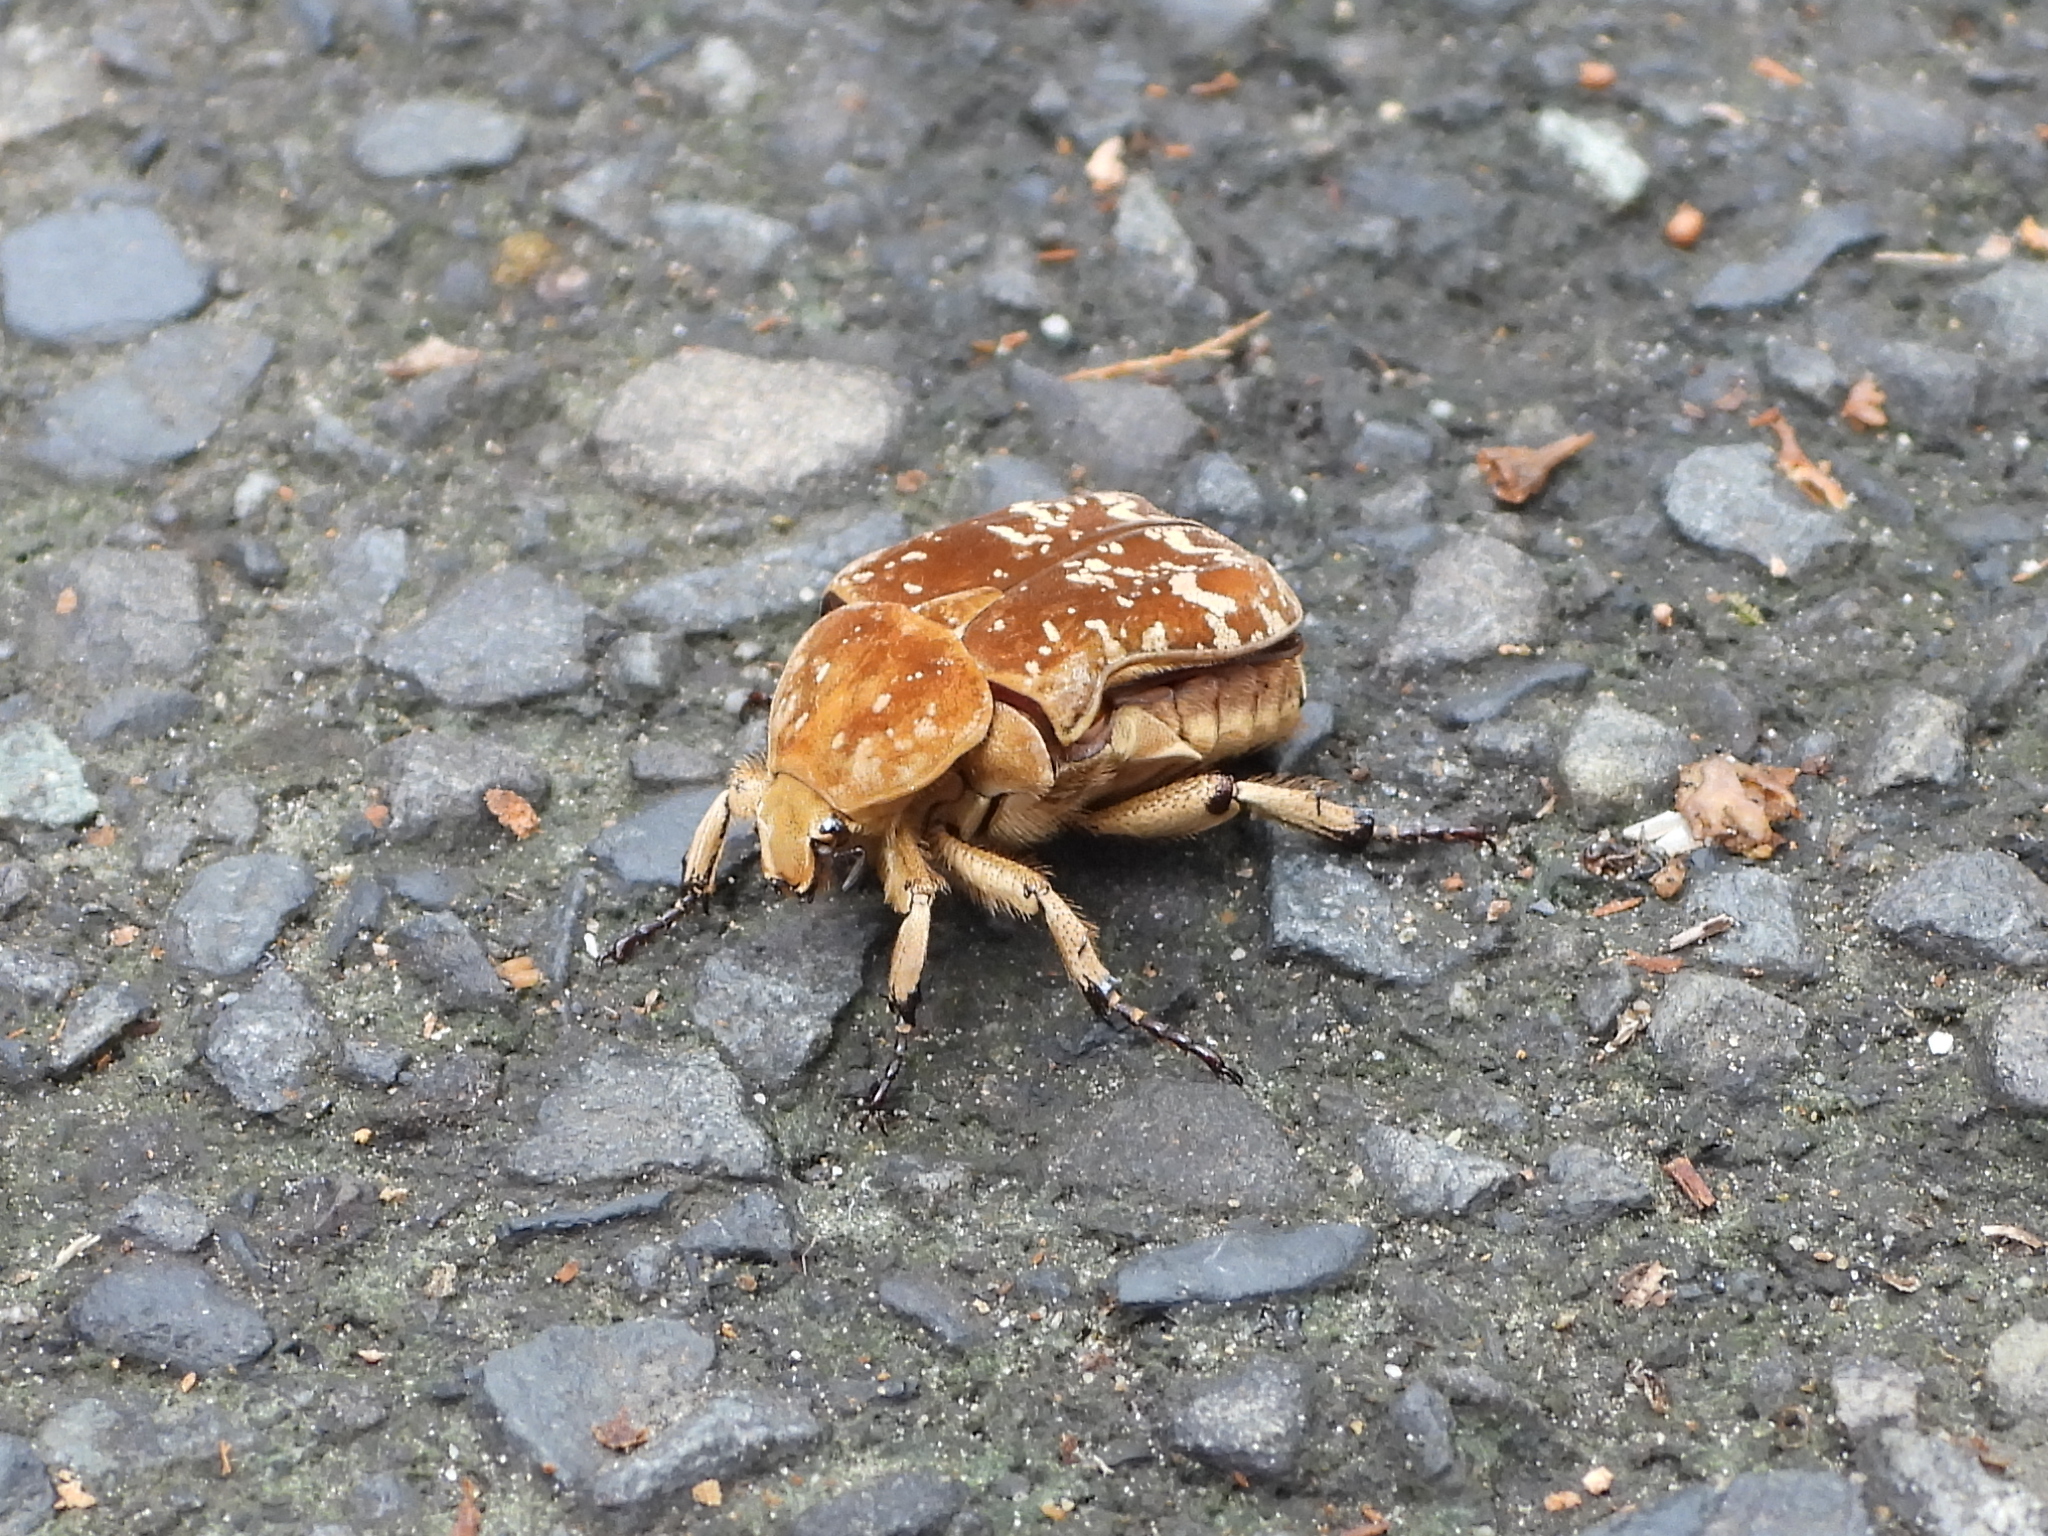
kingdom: Animalia
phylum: Arthropoda
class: Insecta
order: Coleoptera
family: Scarabaeidae
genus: Protaetia
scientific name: Protaetia culta
